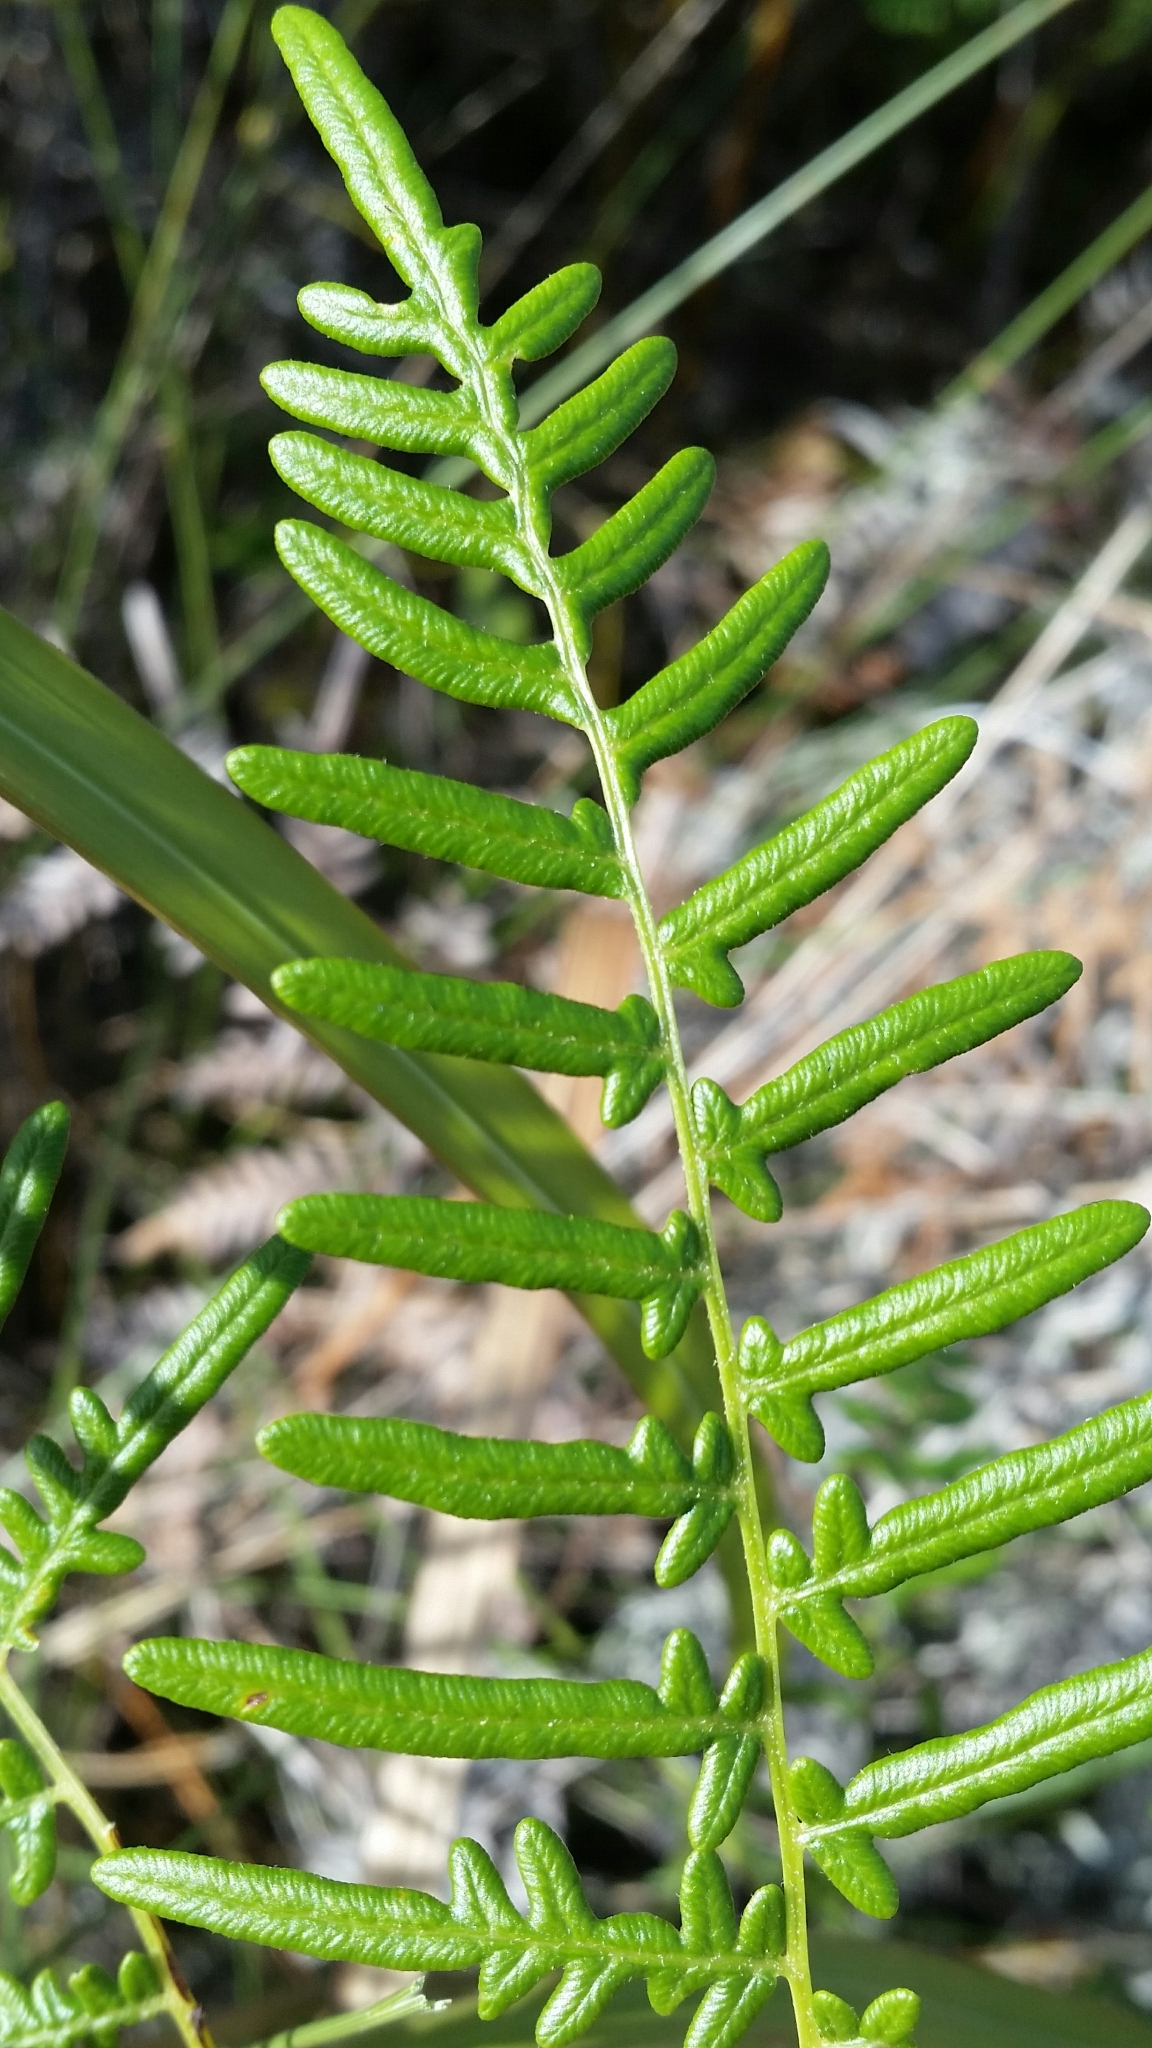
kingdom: Plantae
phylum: Tracheophyta
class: Polypodiopsida
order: Polypodiales
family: Dennstaedtiaceae
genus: Pteridium
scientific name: Pteridium caudatum
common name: Southern bracken fern
